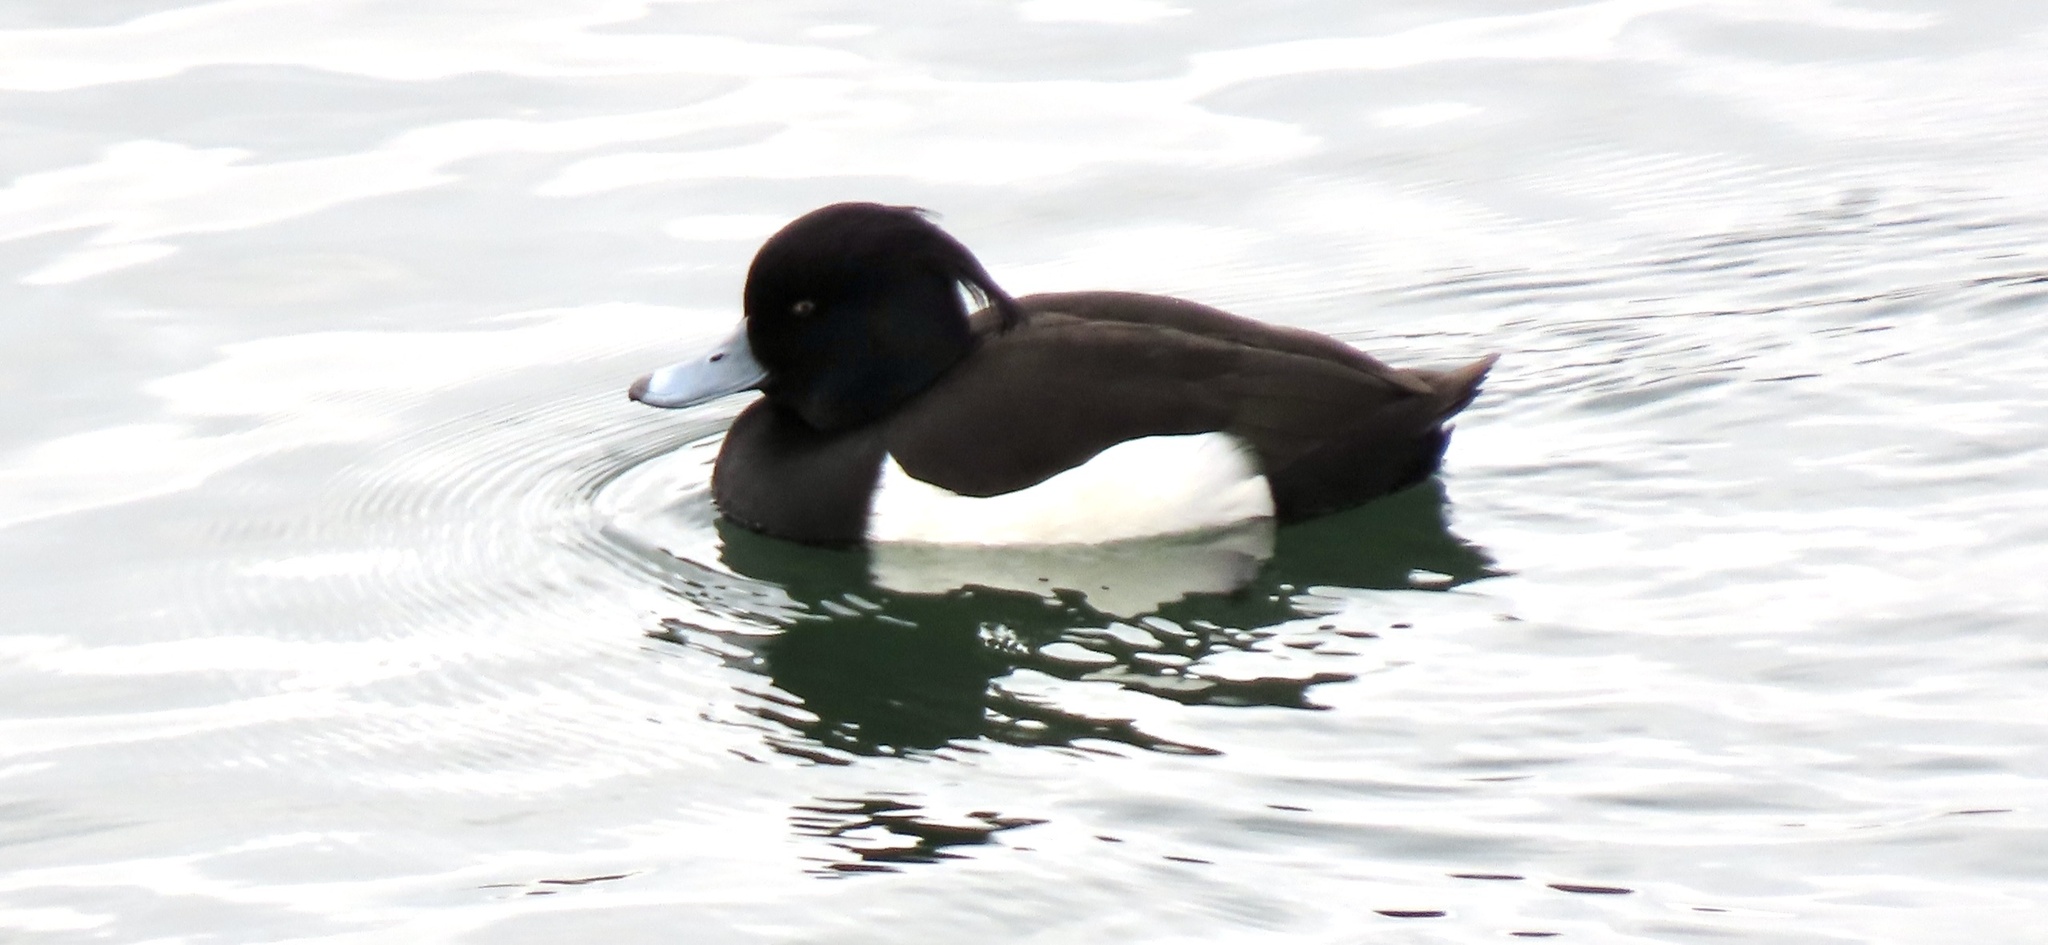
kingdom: Animalia
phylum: Chordata
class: Aves
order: Anseriformes
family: Anatidae
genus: Aythya
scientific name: Aythya fuligula
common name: Tufted duck
